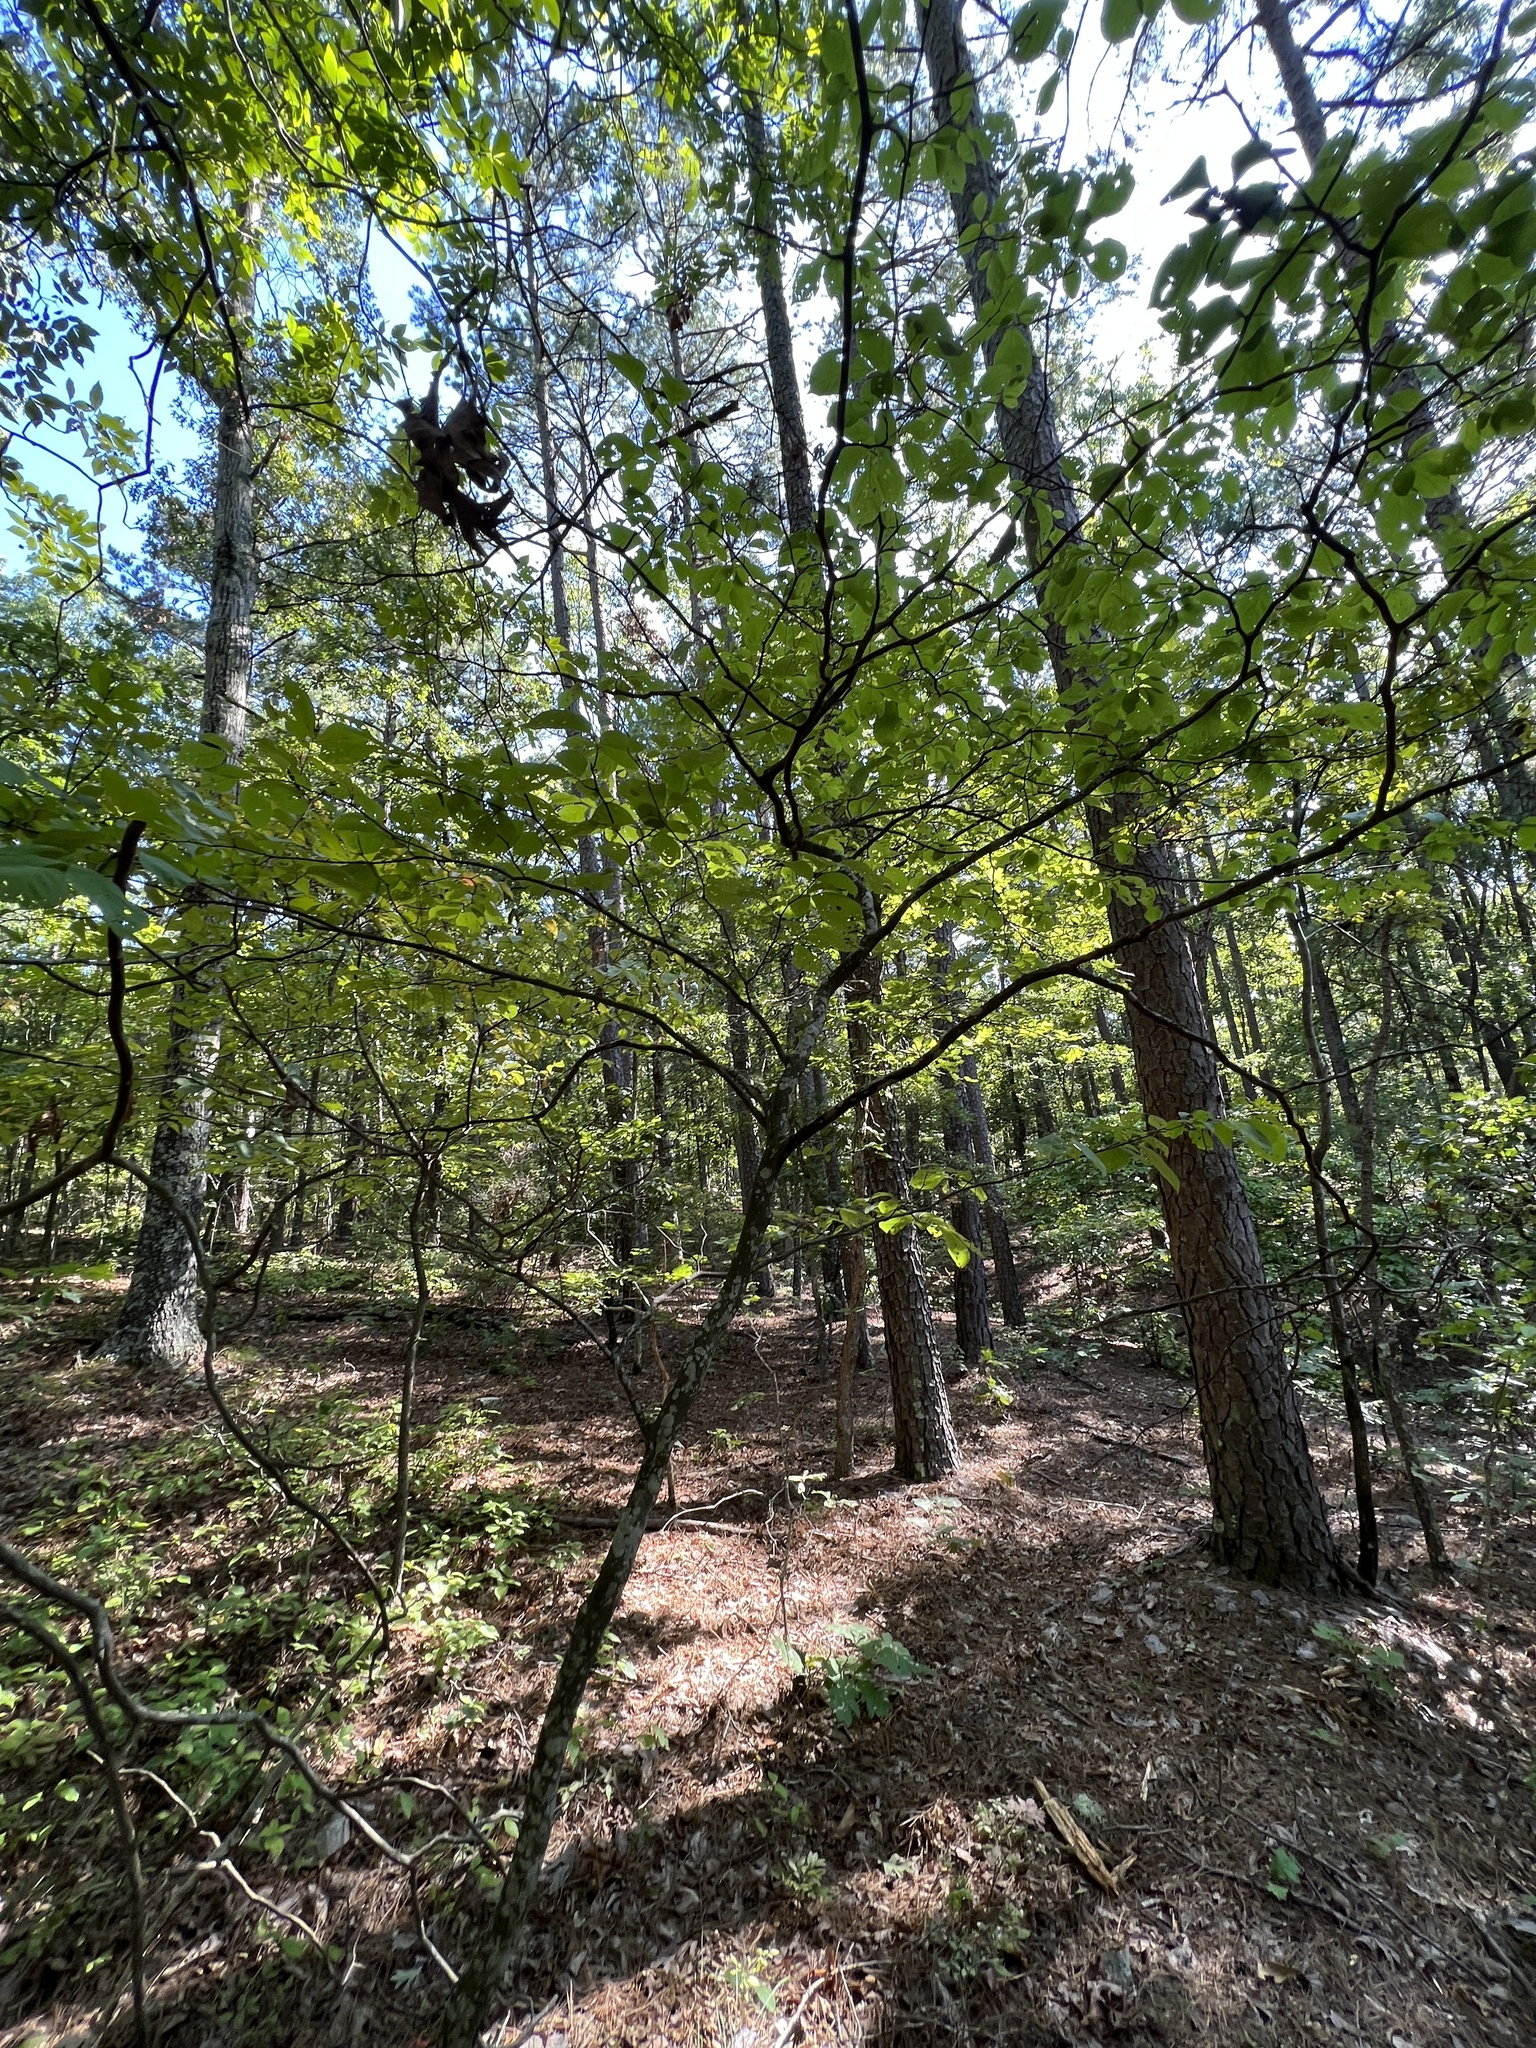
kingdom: Plantae
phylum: Tracheophyta
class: Magnoliopsida
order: Ericales
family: Styracaceae
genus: Styrax
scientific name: Styrax grandifolius
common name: Big-leaf snowbell
